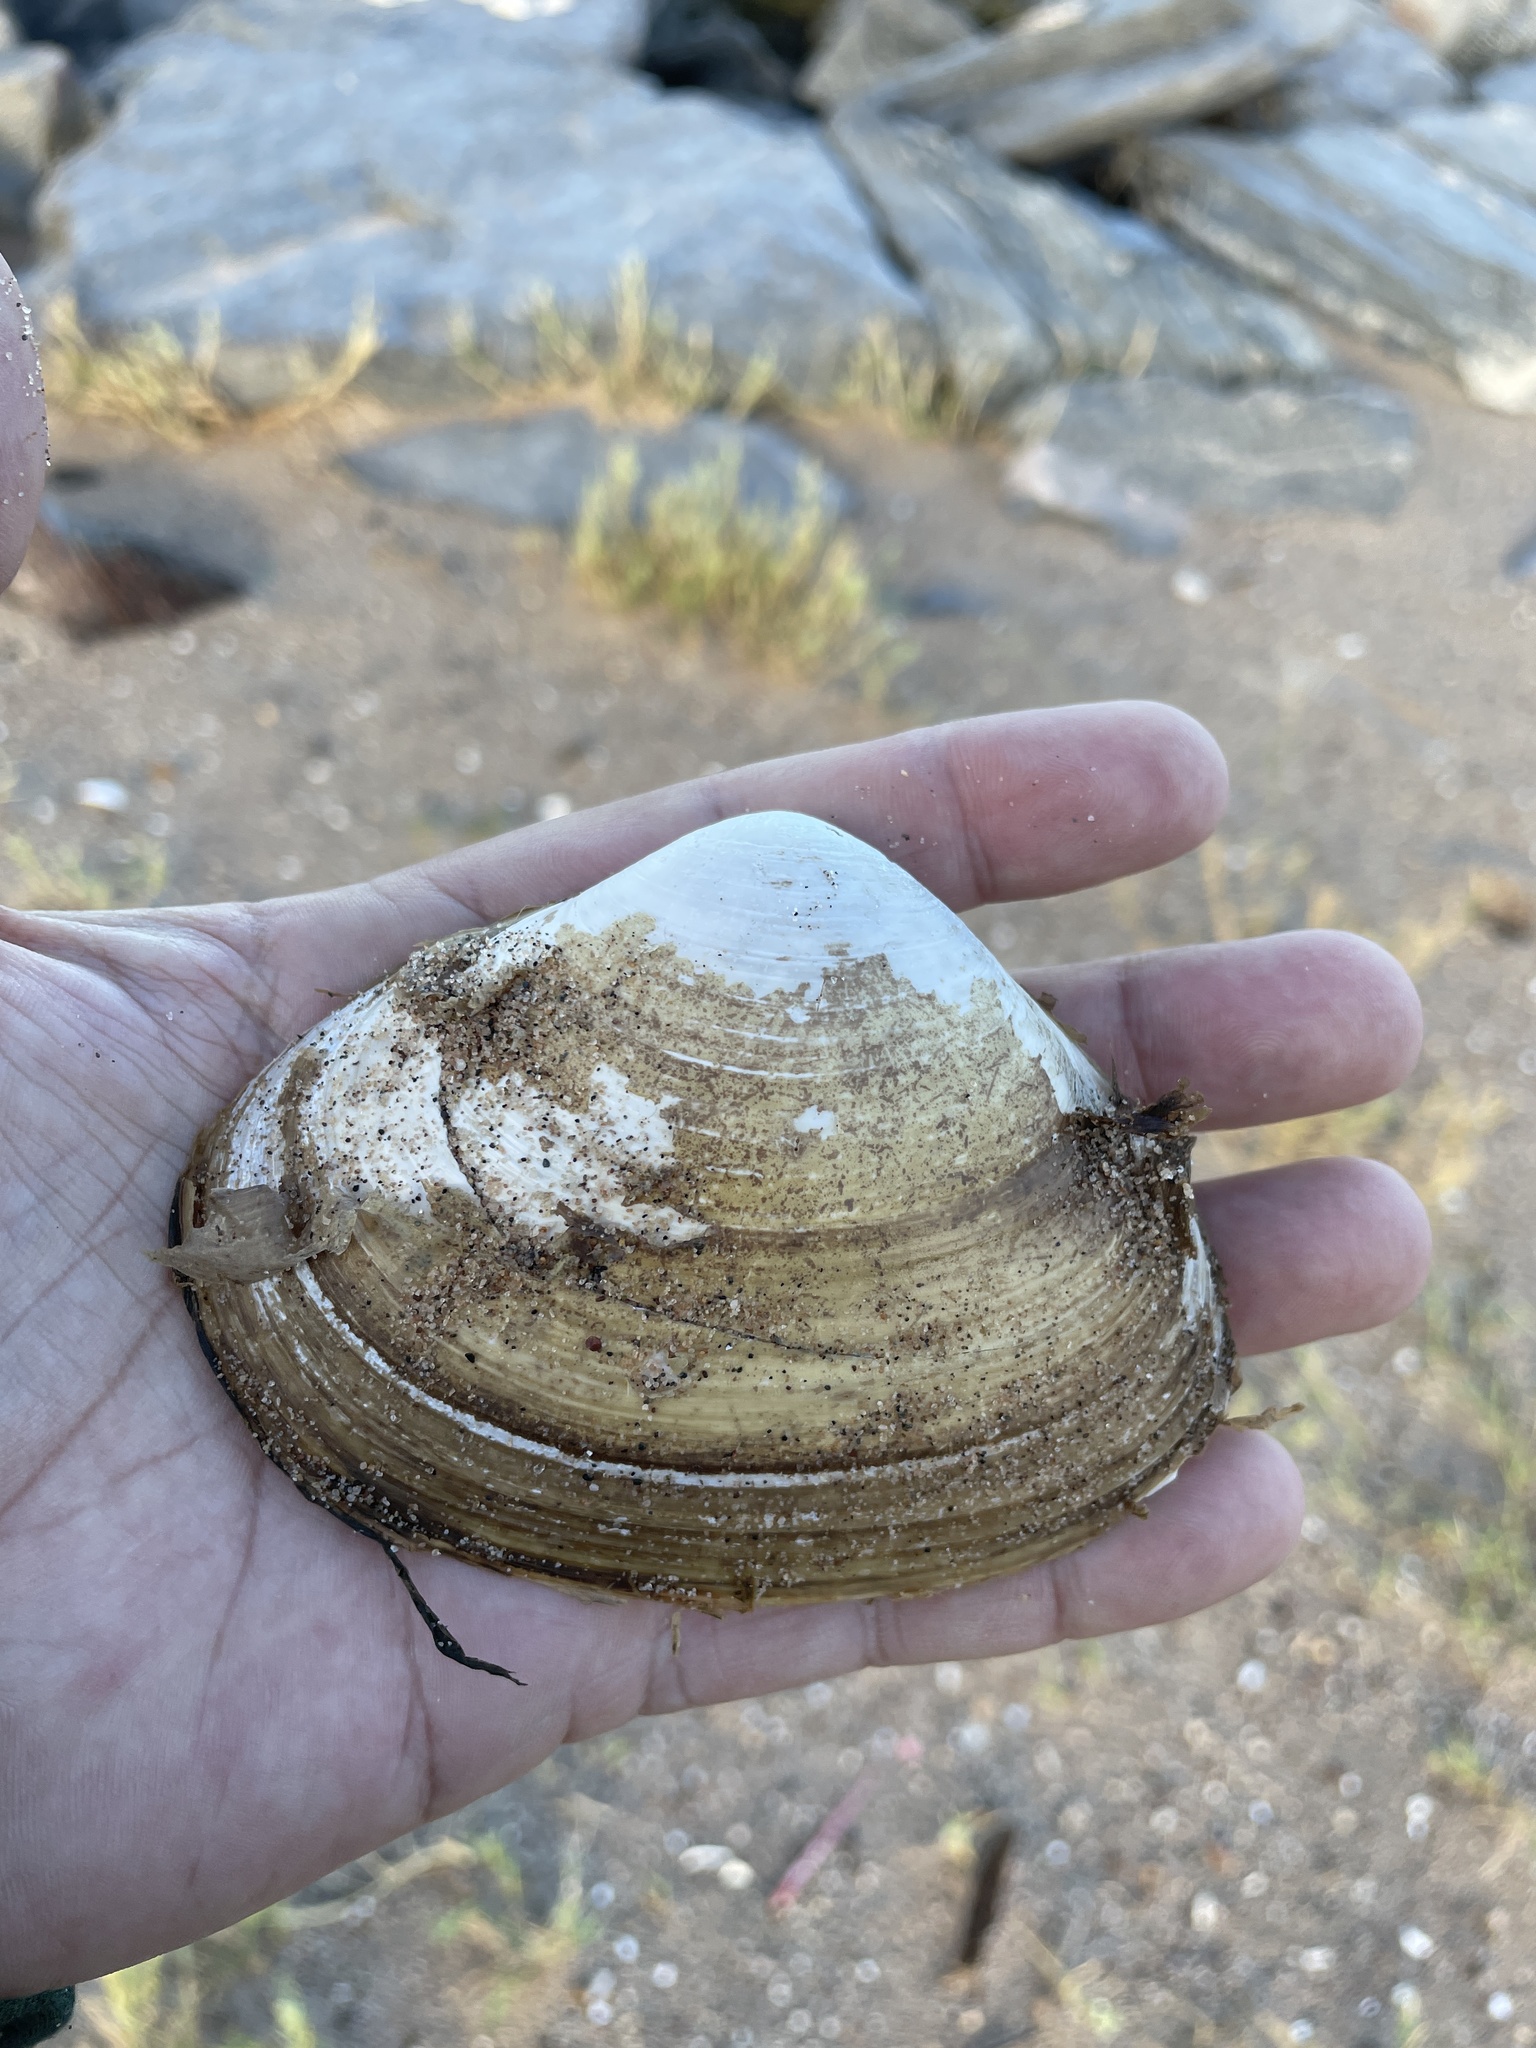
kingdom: Animalia
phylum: Mollusca
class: Bivalvia
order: Venerida
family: Mactridae
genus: Spisula
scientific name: Spisula solidissima
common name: Atlantic surf clam
